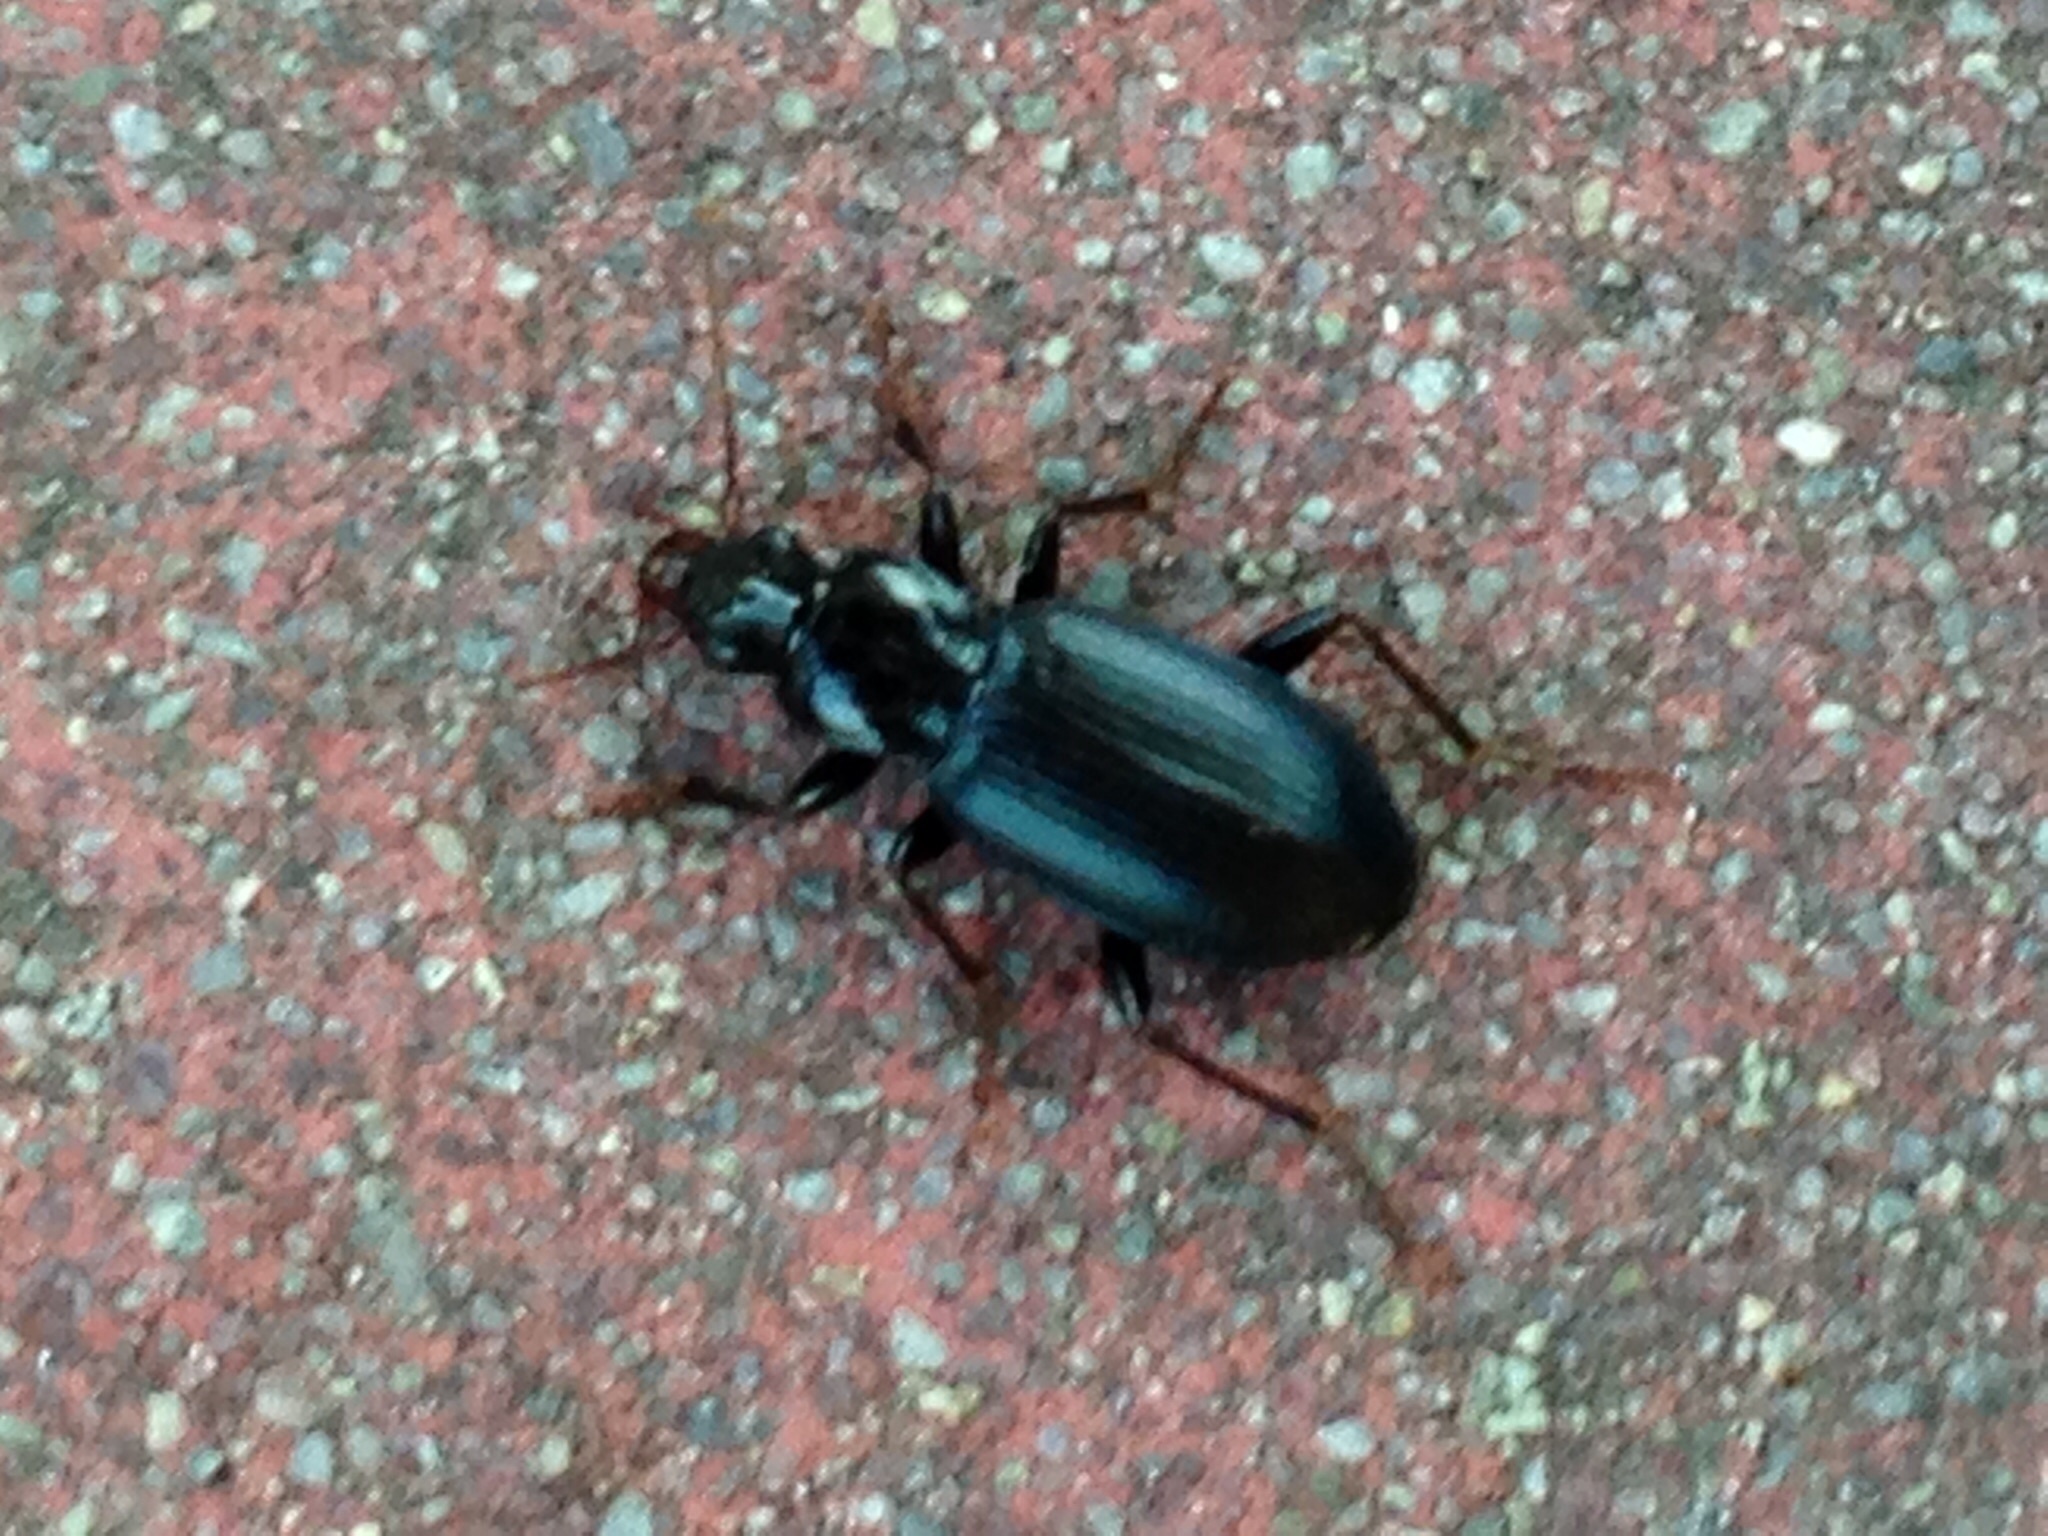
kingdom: Animalia
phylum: Arthropoda
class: Insecta
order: Coleoptera
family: Carabidae
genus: Laemostenus
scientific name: Laemostenus complanatus
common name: Cosmopolitan ground beetle
